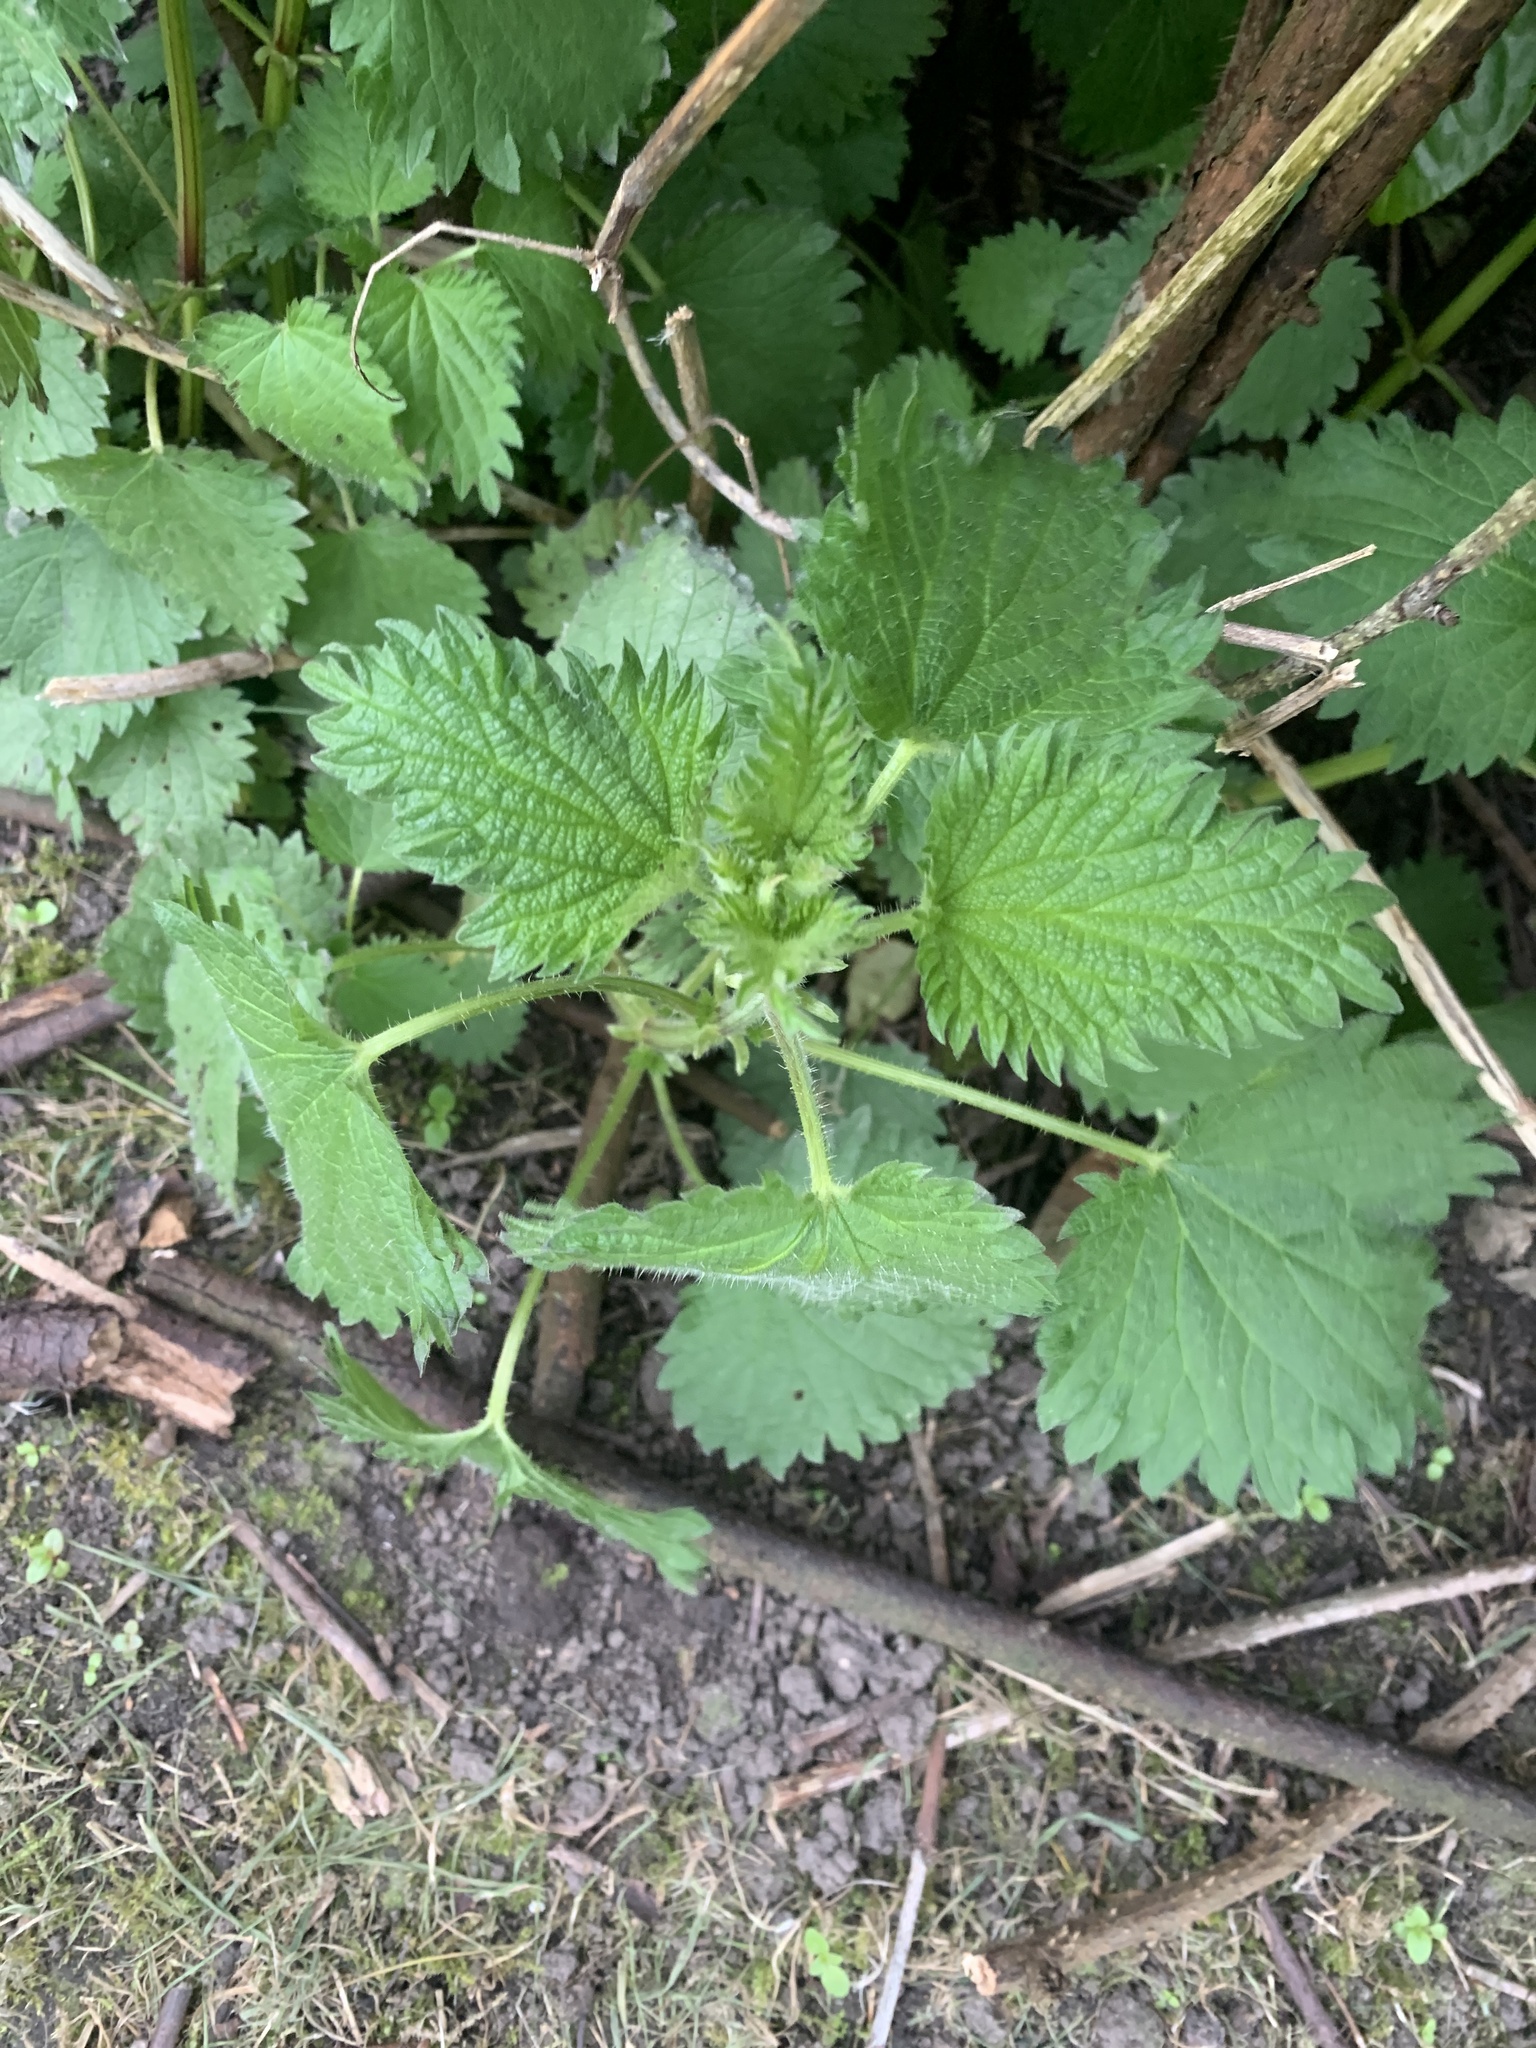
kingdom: Plantae
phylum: Tracheophyta
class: Magnoliopsida
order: Rosales
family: Urticaceae
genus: Urtica
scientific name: Urtica dioica
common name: Common nettle
